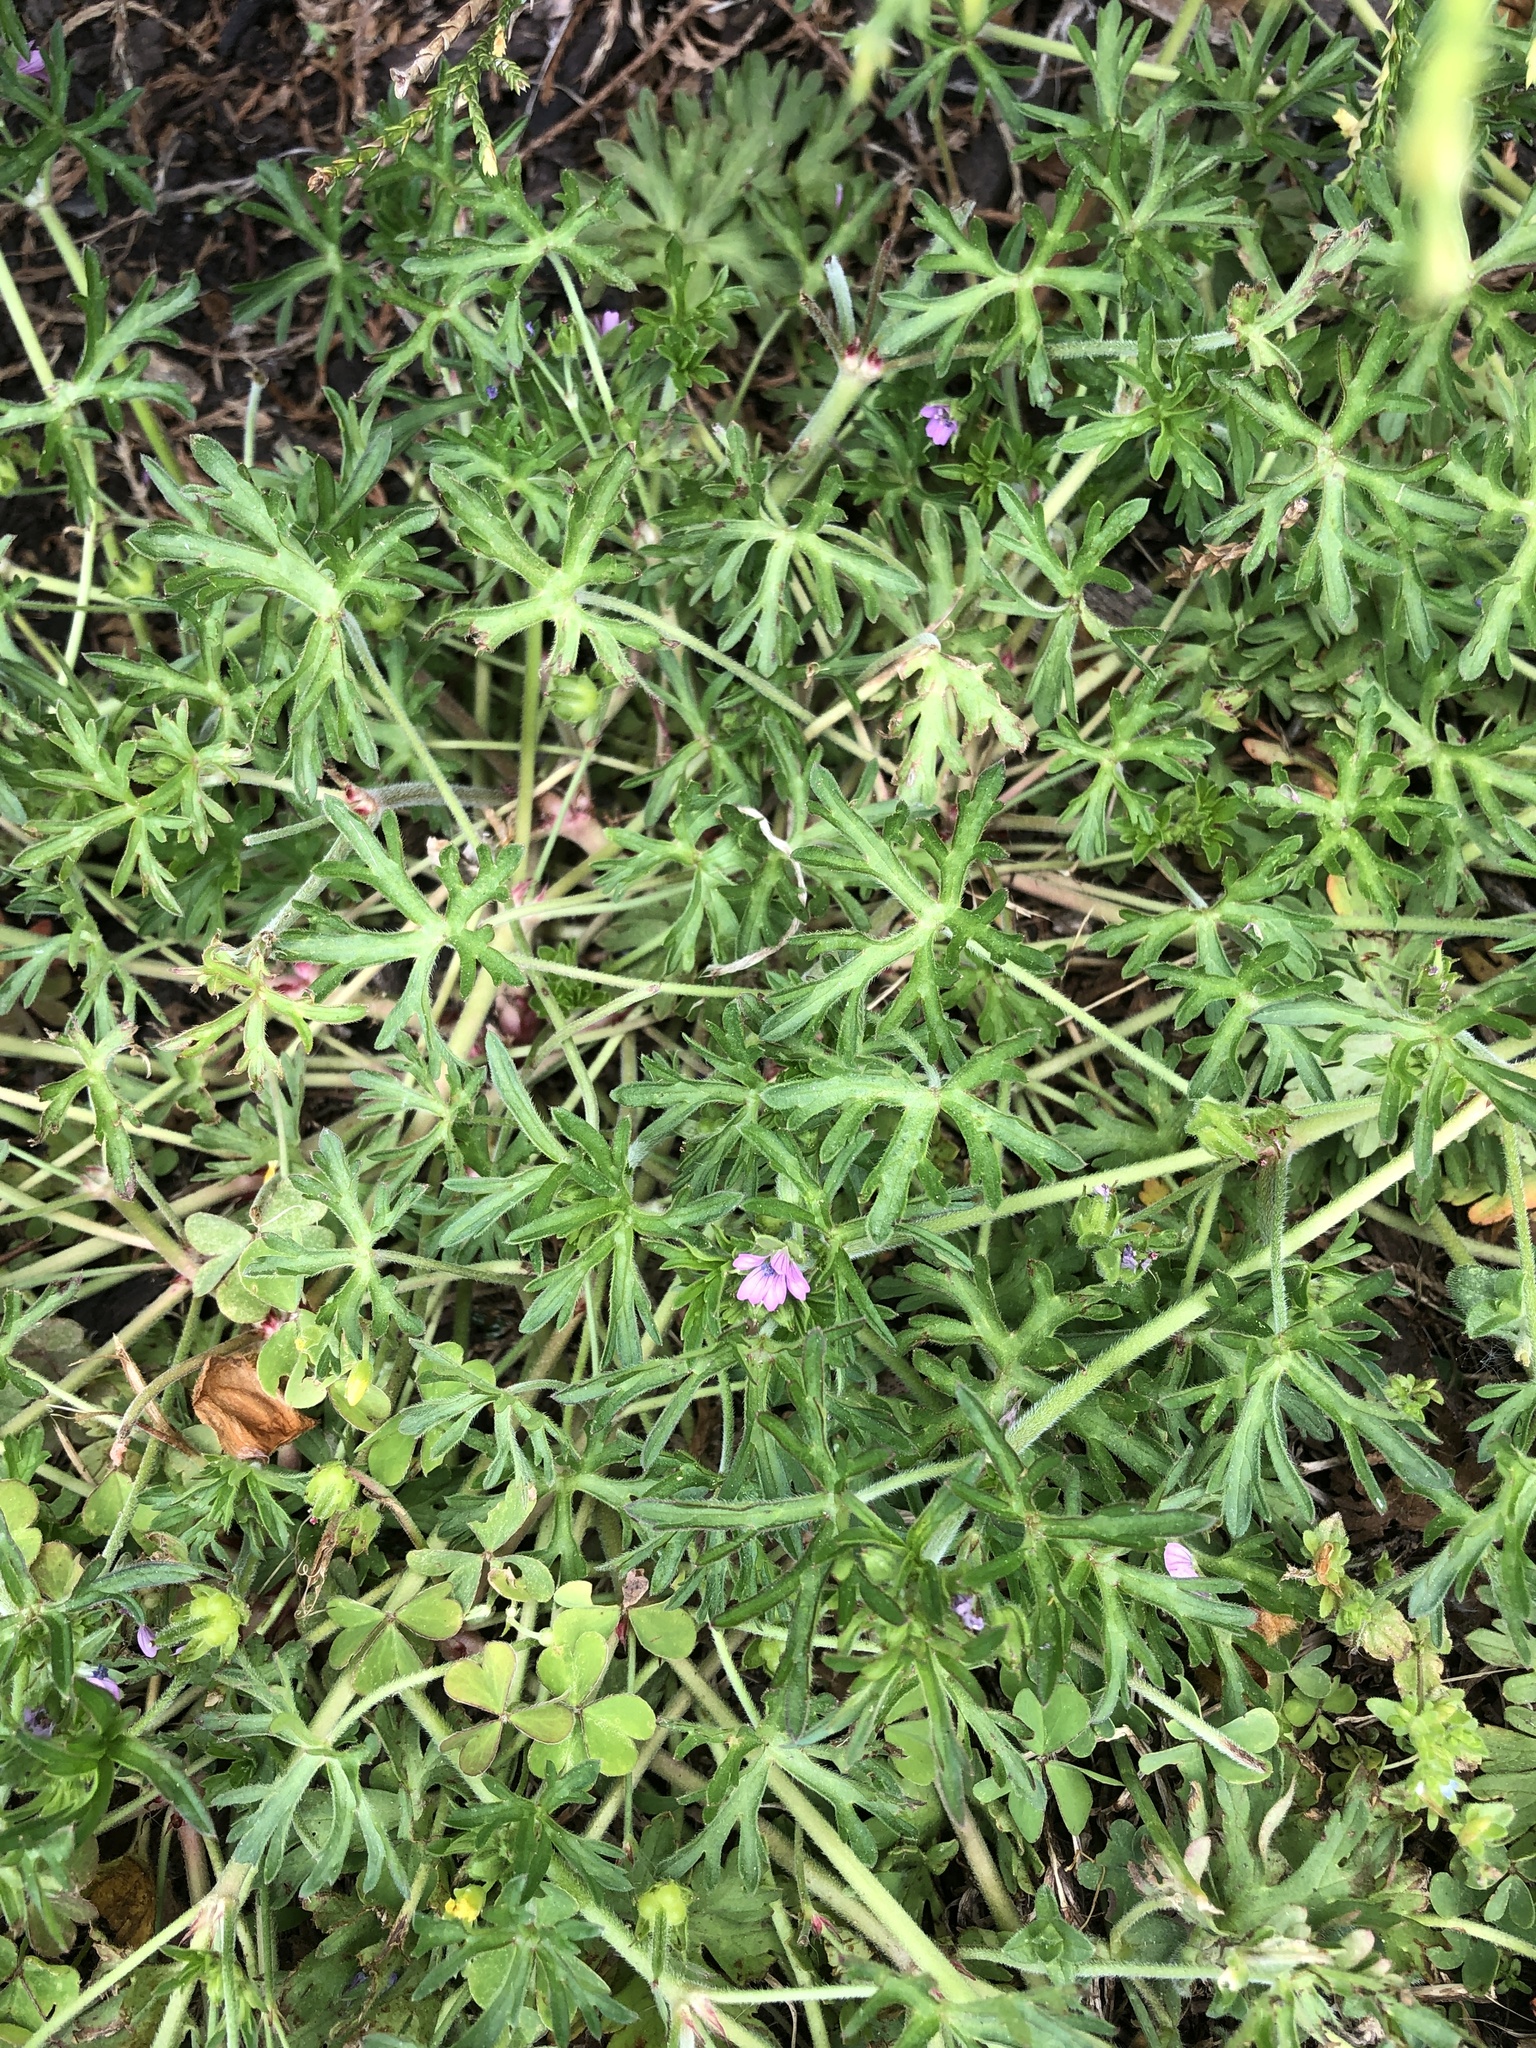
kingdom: Plantae
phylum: Tracheophyta
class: Magnoliopsida
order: Geraniales
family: Geraniaceae
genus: Geranium
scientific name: Geranium dissectum
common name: Cut-leaved crane's-bill
